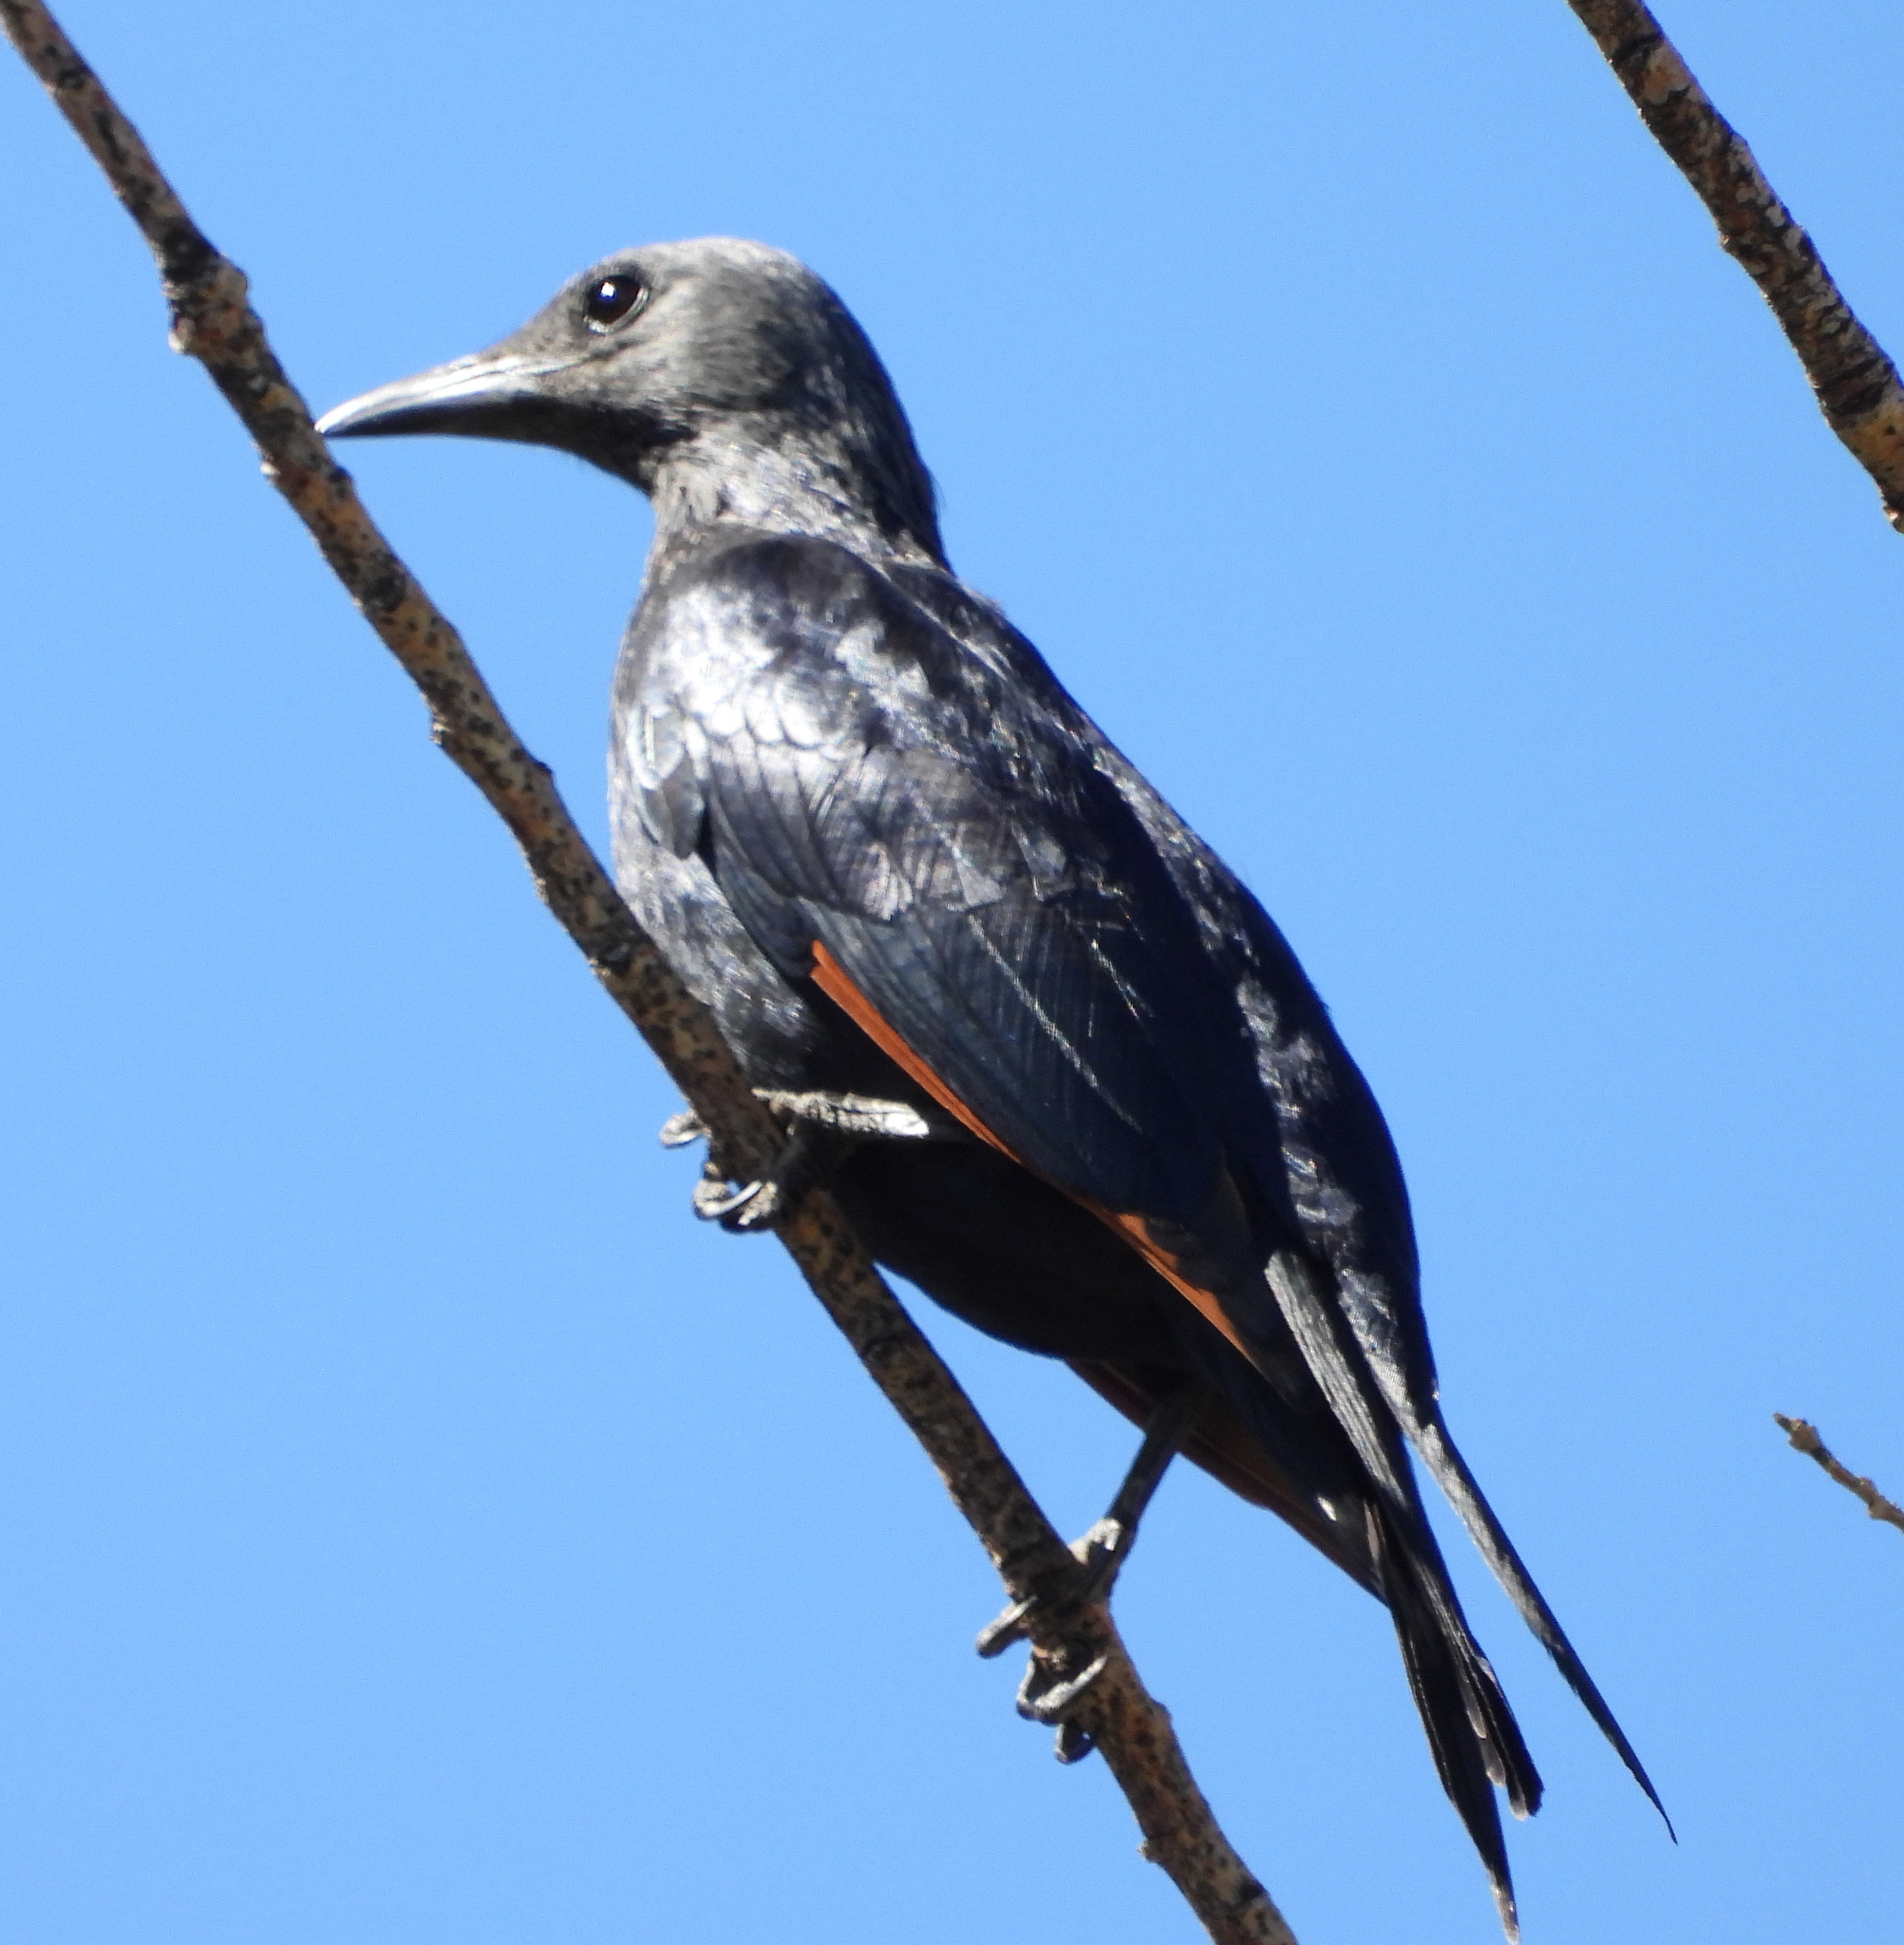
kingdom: Animalia
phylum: Chordata
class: Aves
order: Passeriformes
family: Sturnidae
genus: Onychognathus
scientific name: Onychognathus morio
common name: Red-winged starling
